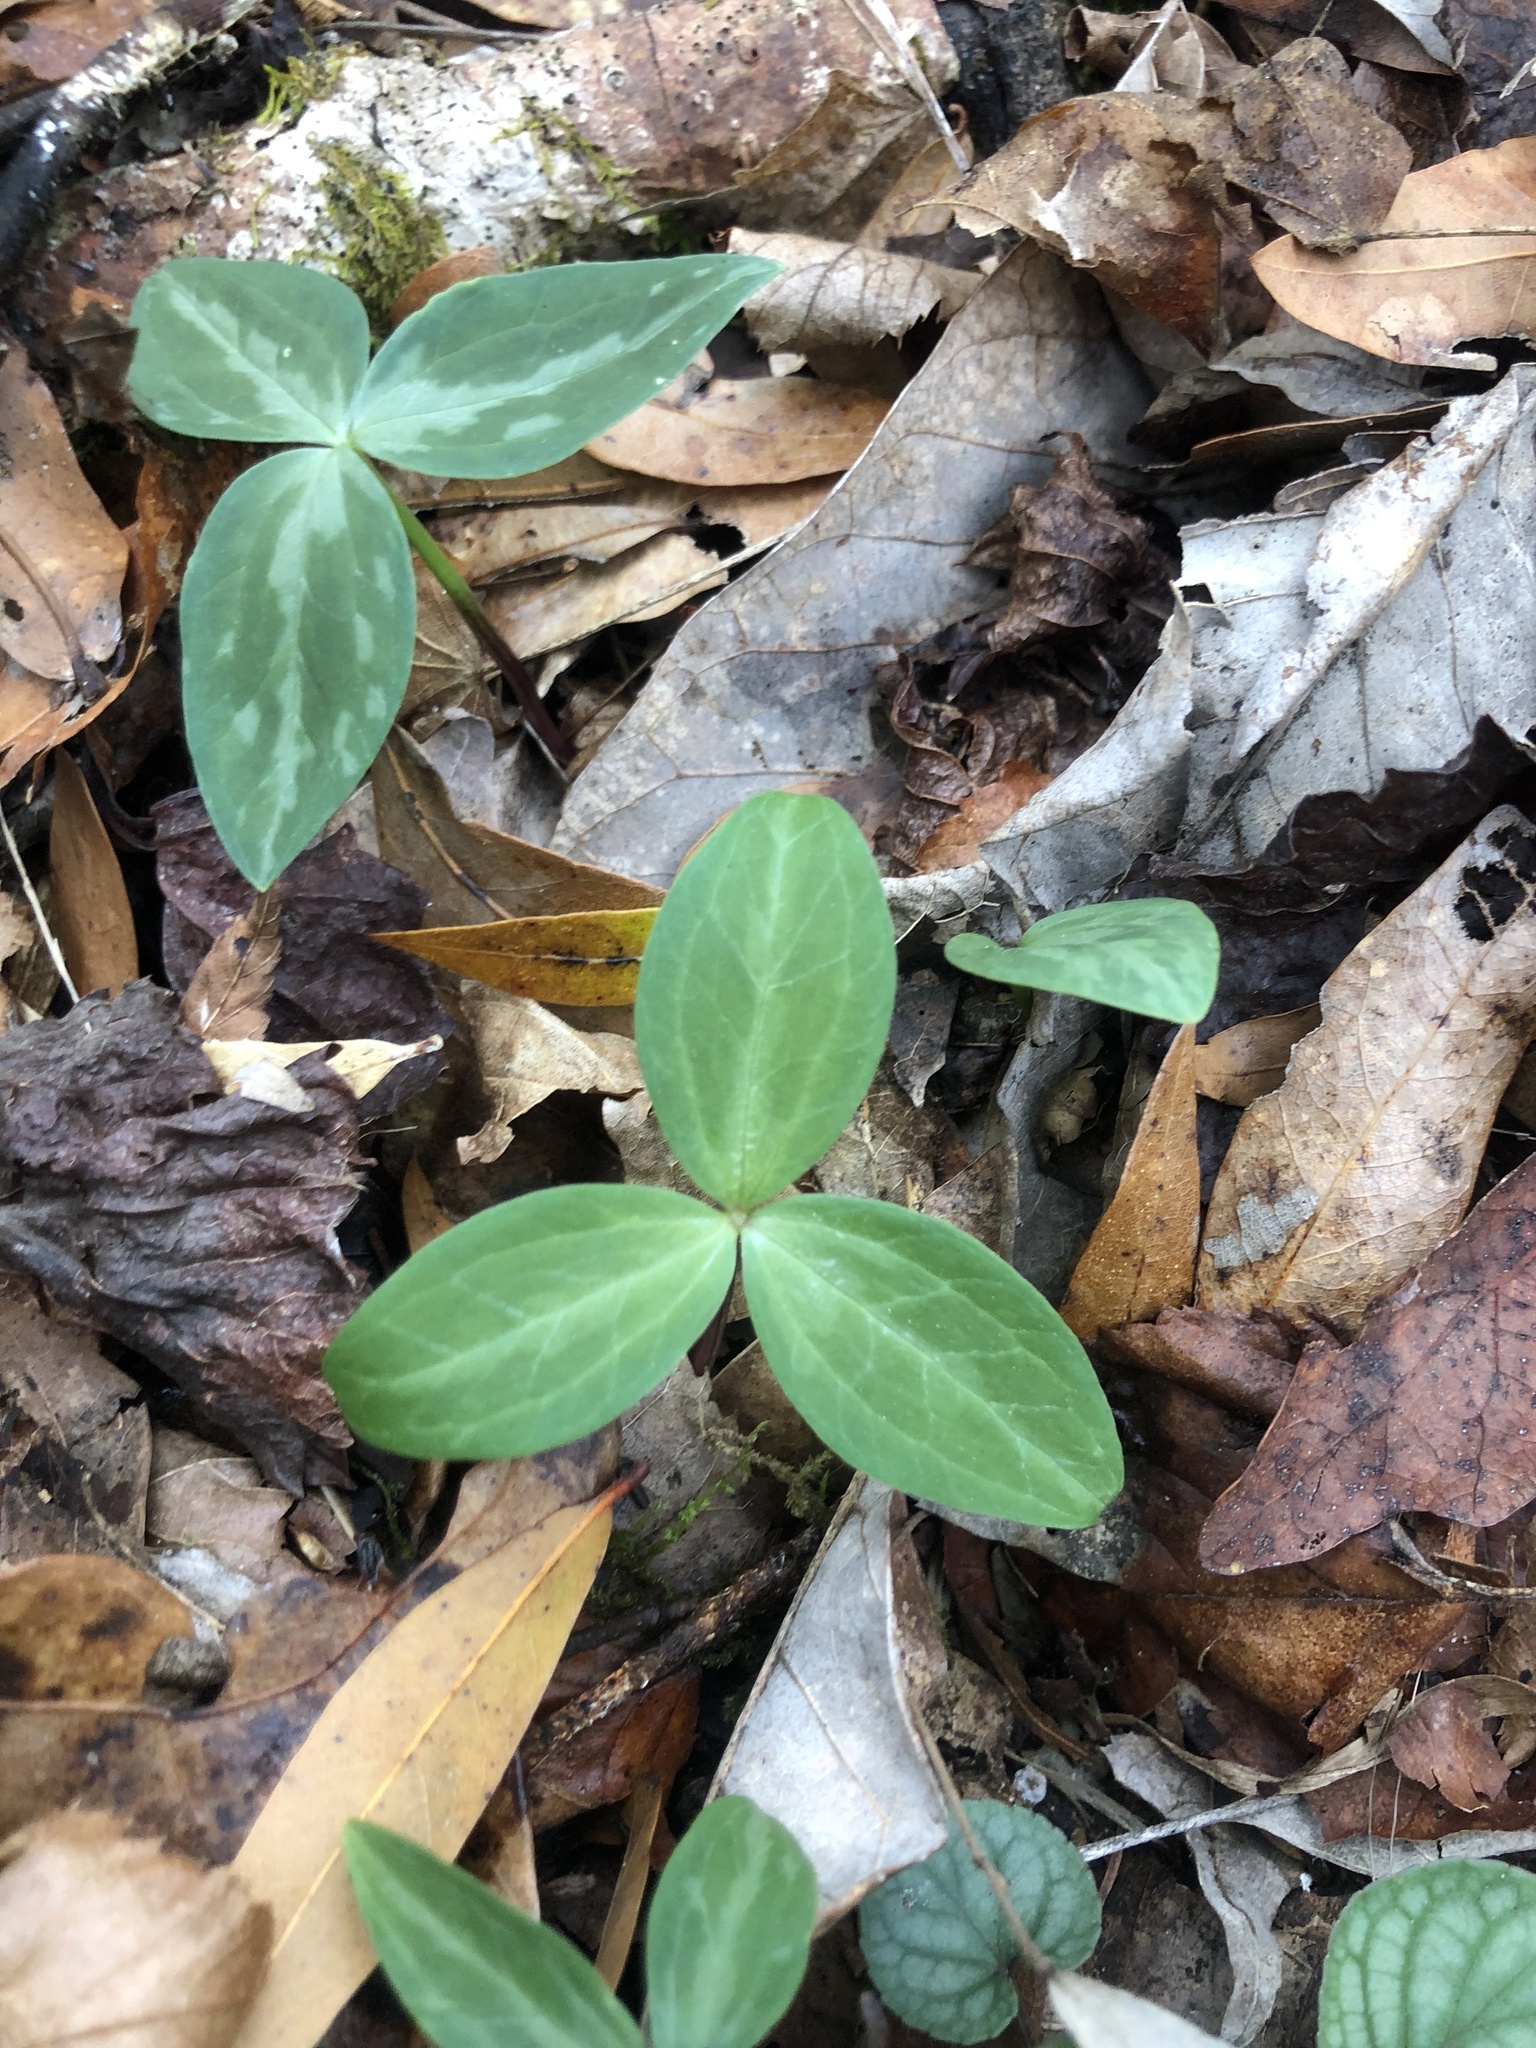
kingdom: Plantae
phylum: Tracheophyta
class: Liliopsida
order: Liliales
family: Melanthiaceae
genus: Trillium
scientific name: Trillium stamineum
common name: Blue ridge wakerobin
